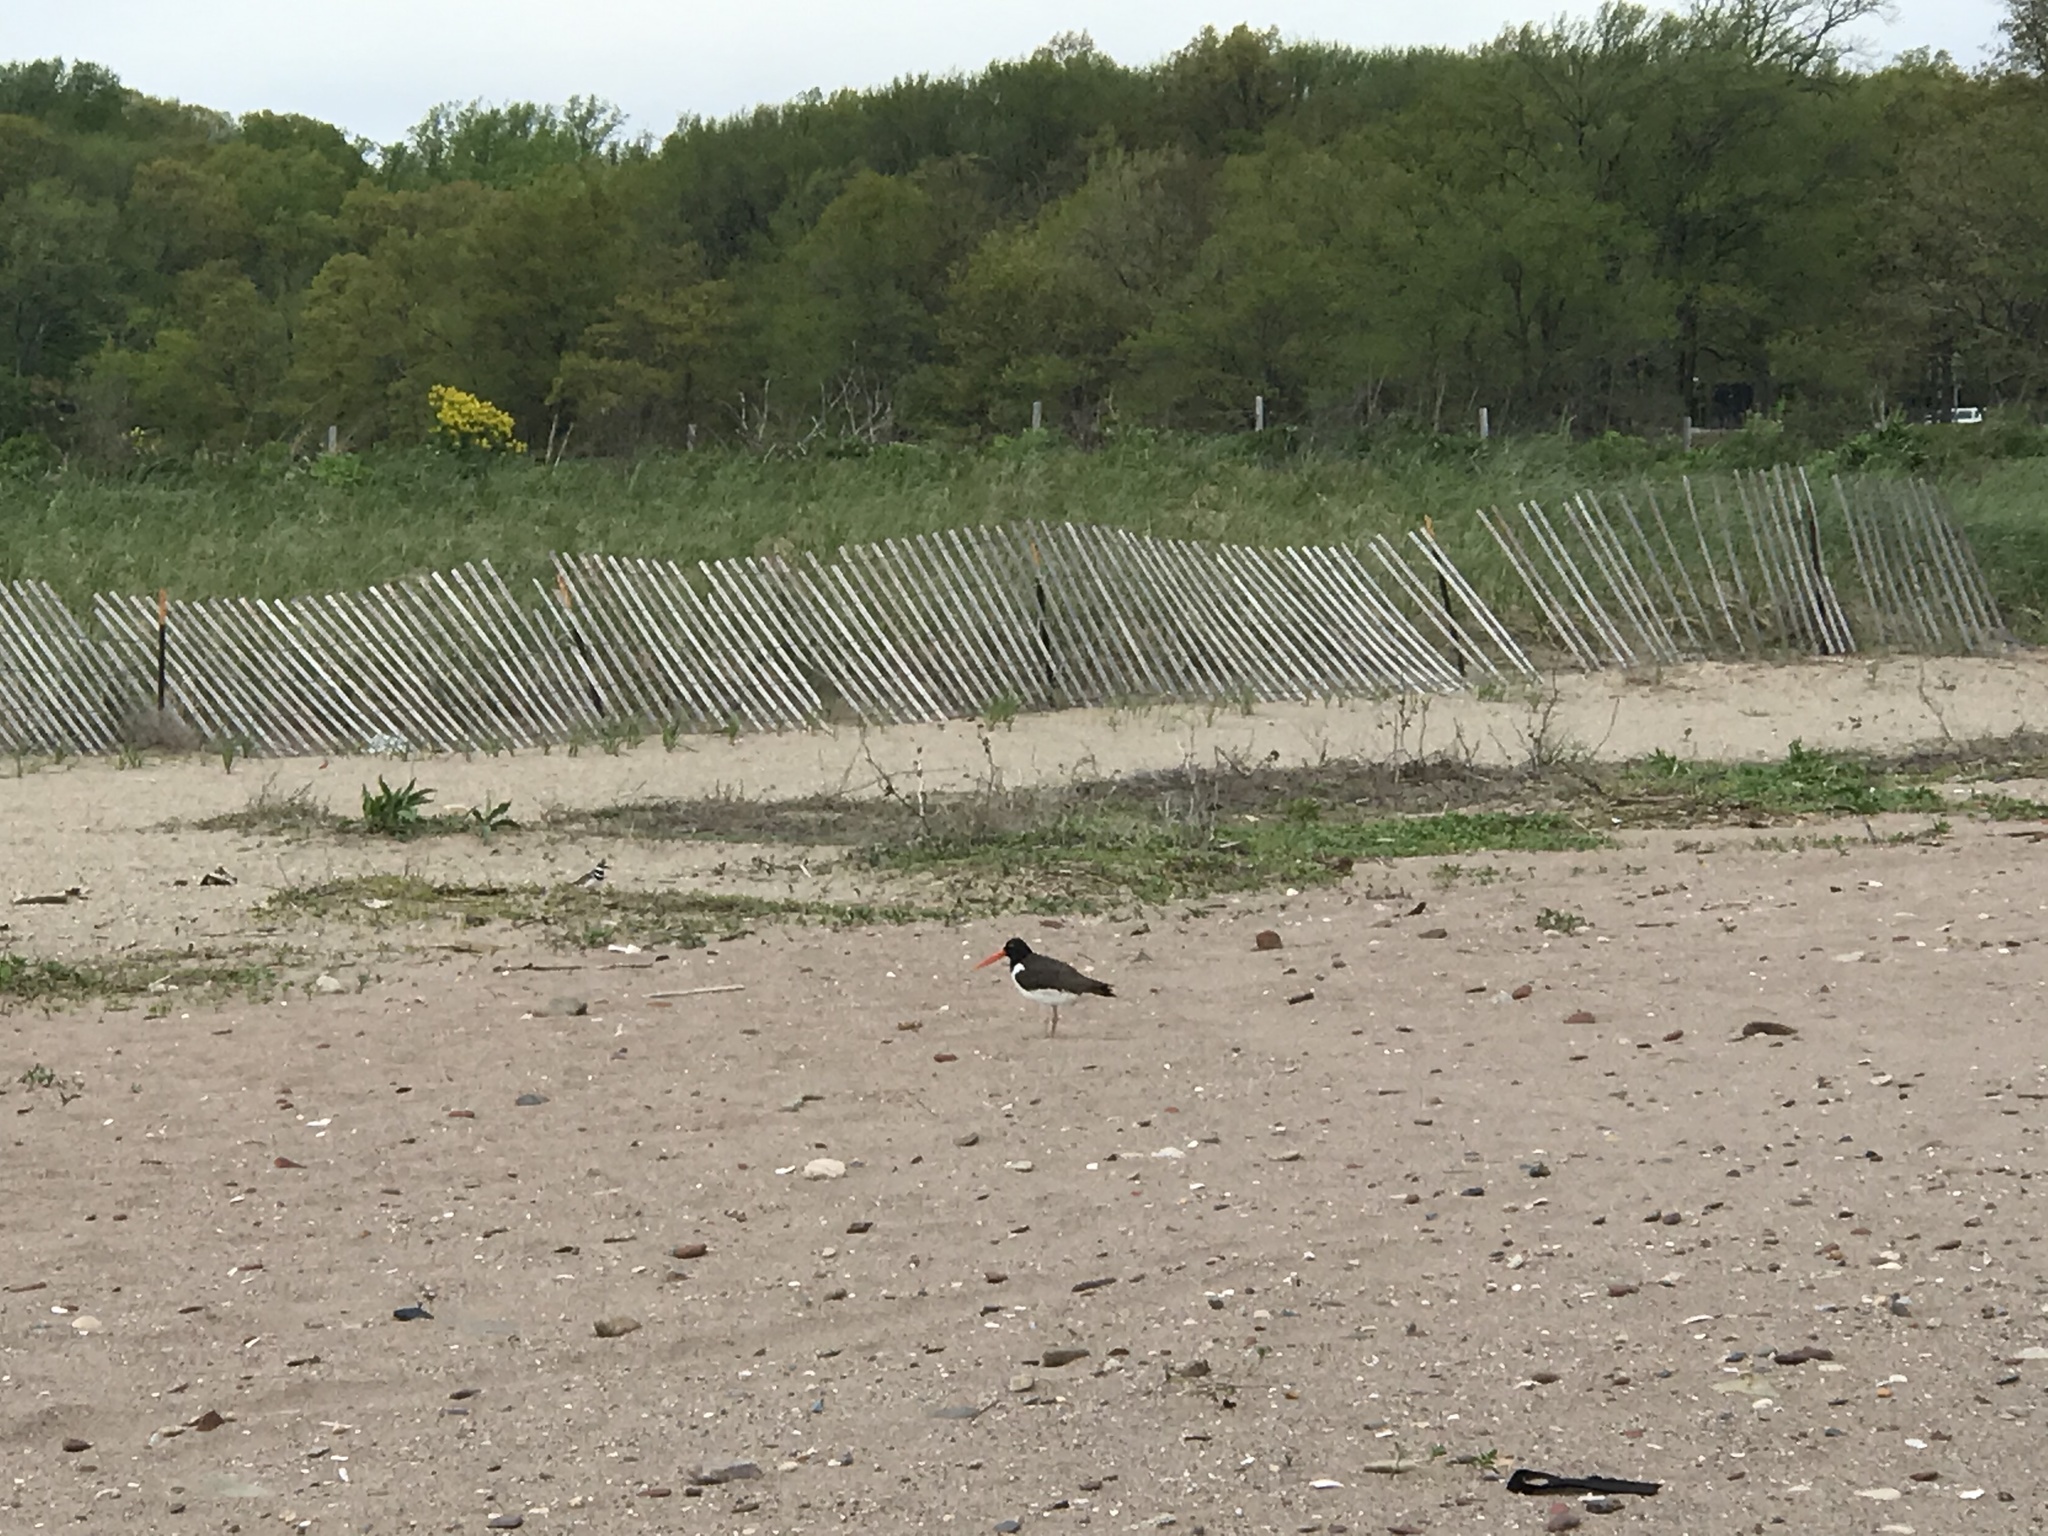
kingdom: Animalia
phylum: Chordata
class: Aves
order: Charadriiformes
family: Haematopodidae
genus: Haematopus
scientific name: Haematopus palliatus
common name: American oystercatcher
